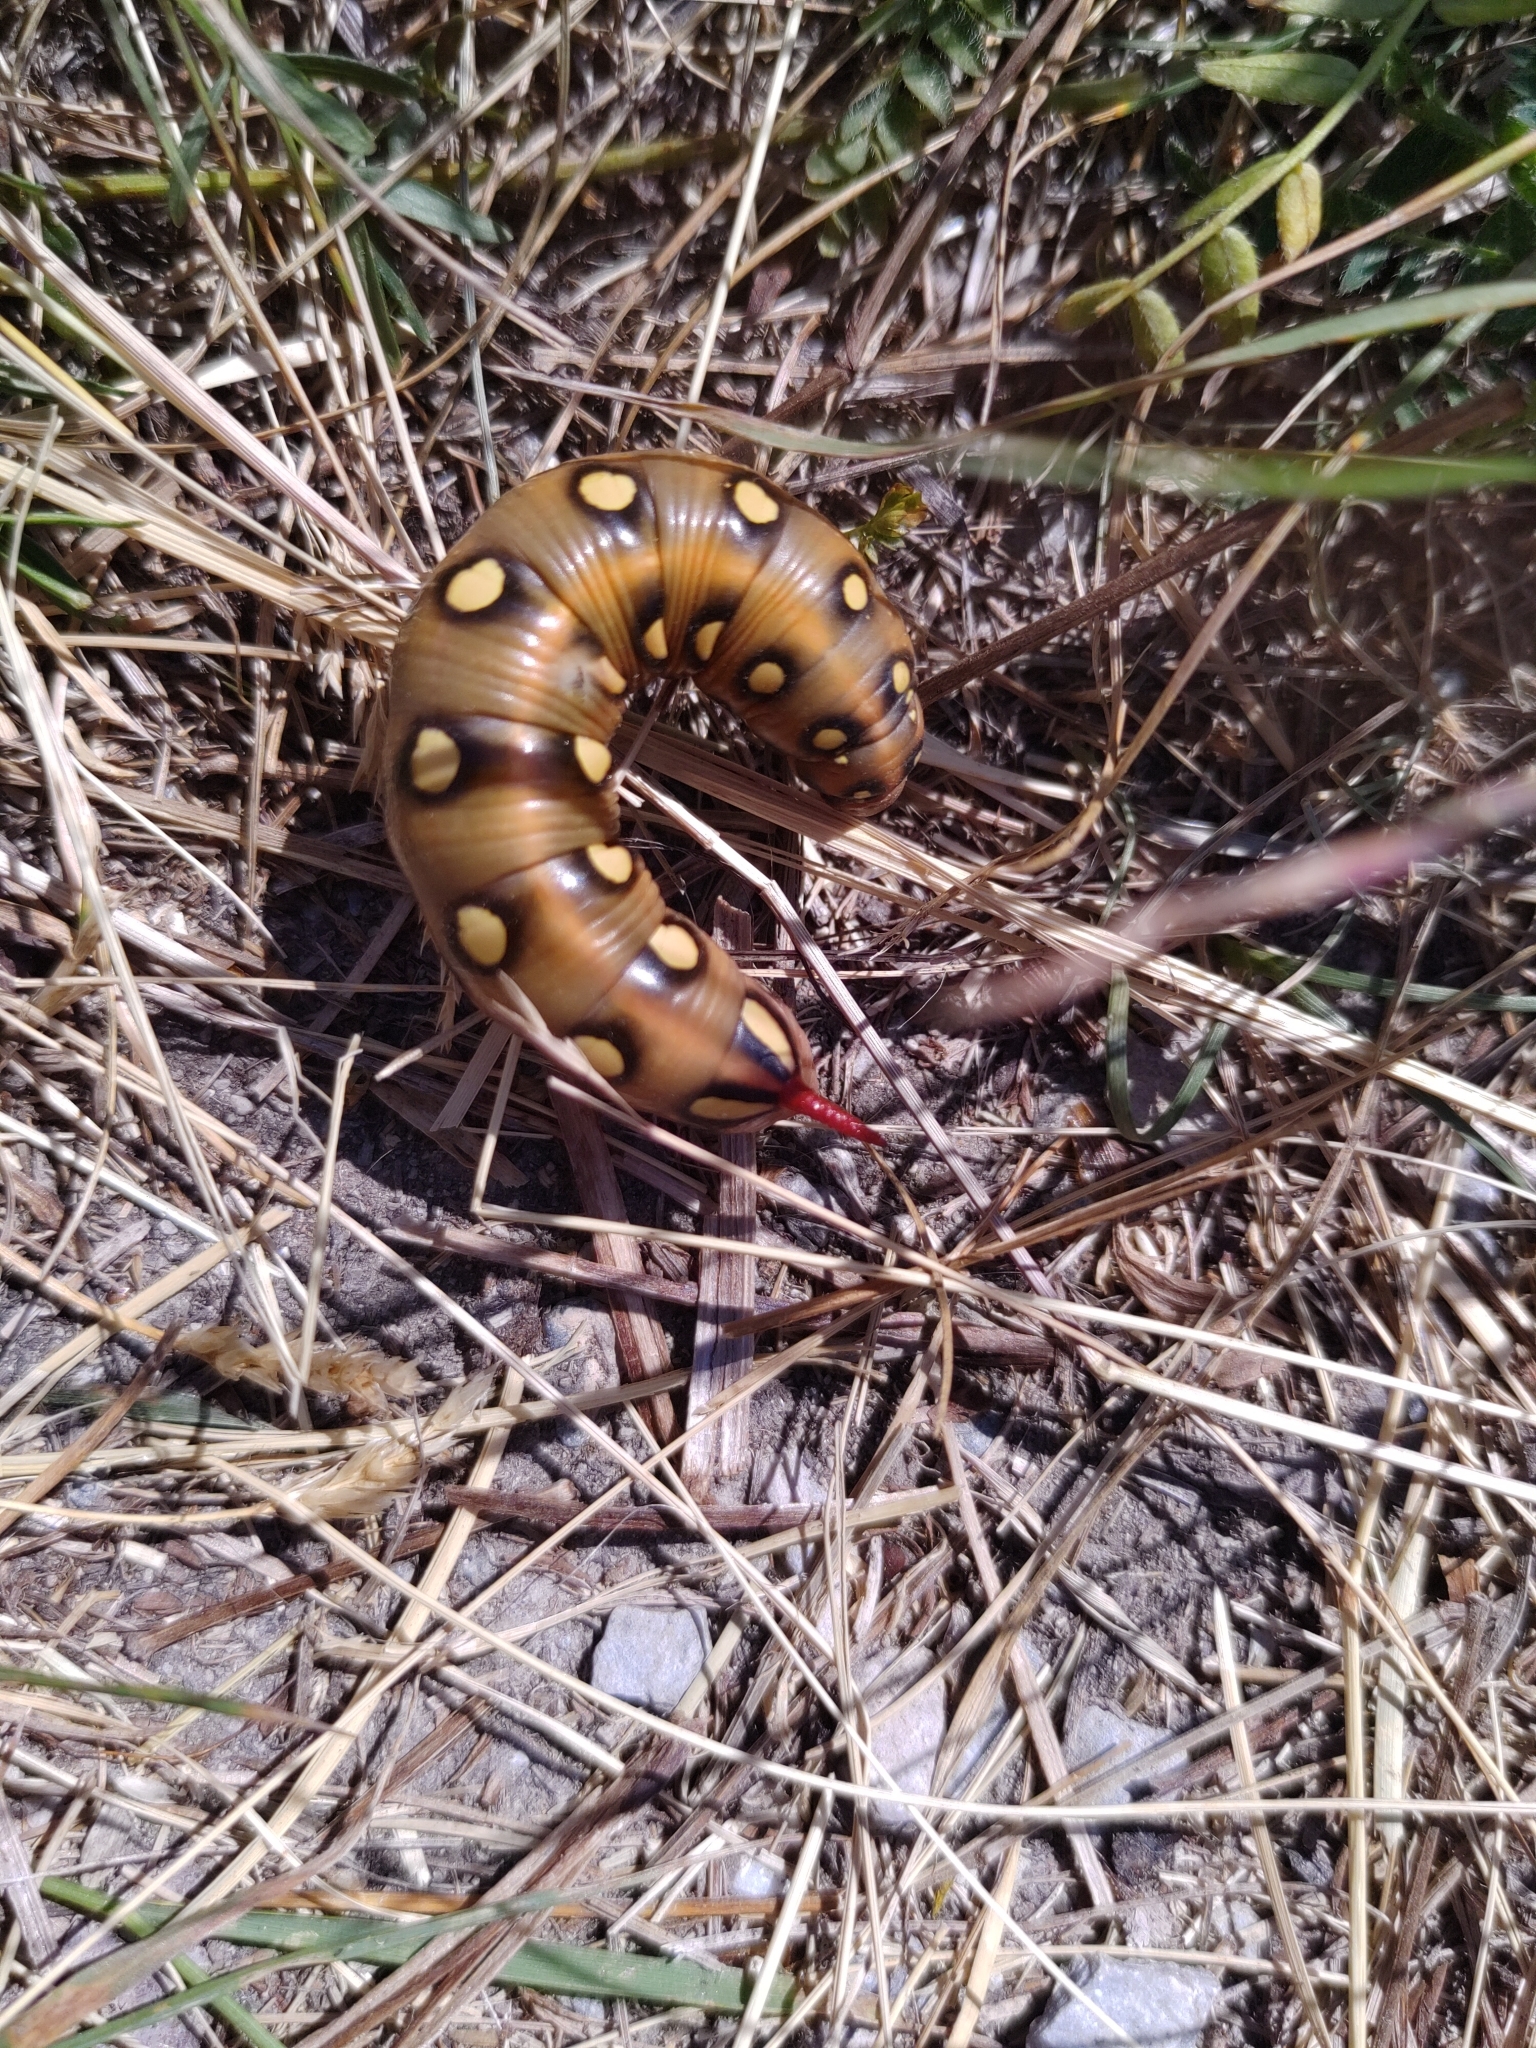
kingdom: Animalia
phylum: Arthropoda
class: Insecta
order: Lepidoptera
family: Sphingidae
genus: Hyles
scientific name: Hyles gallii
